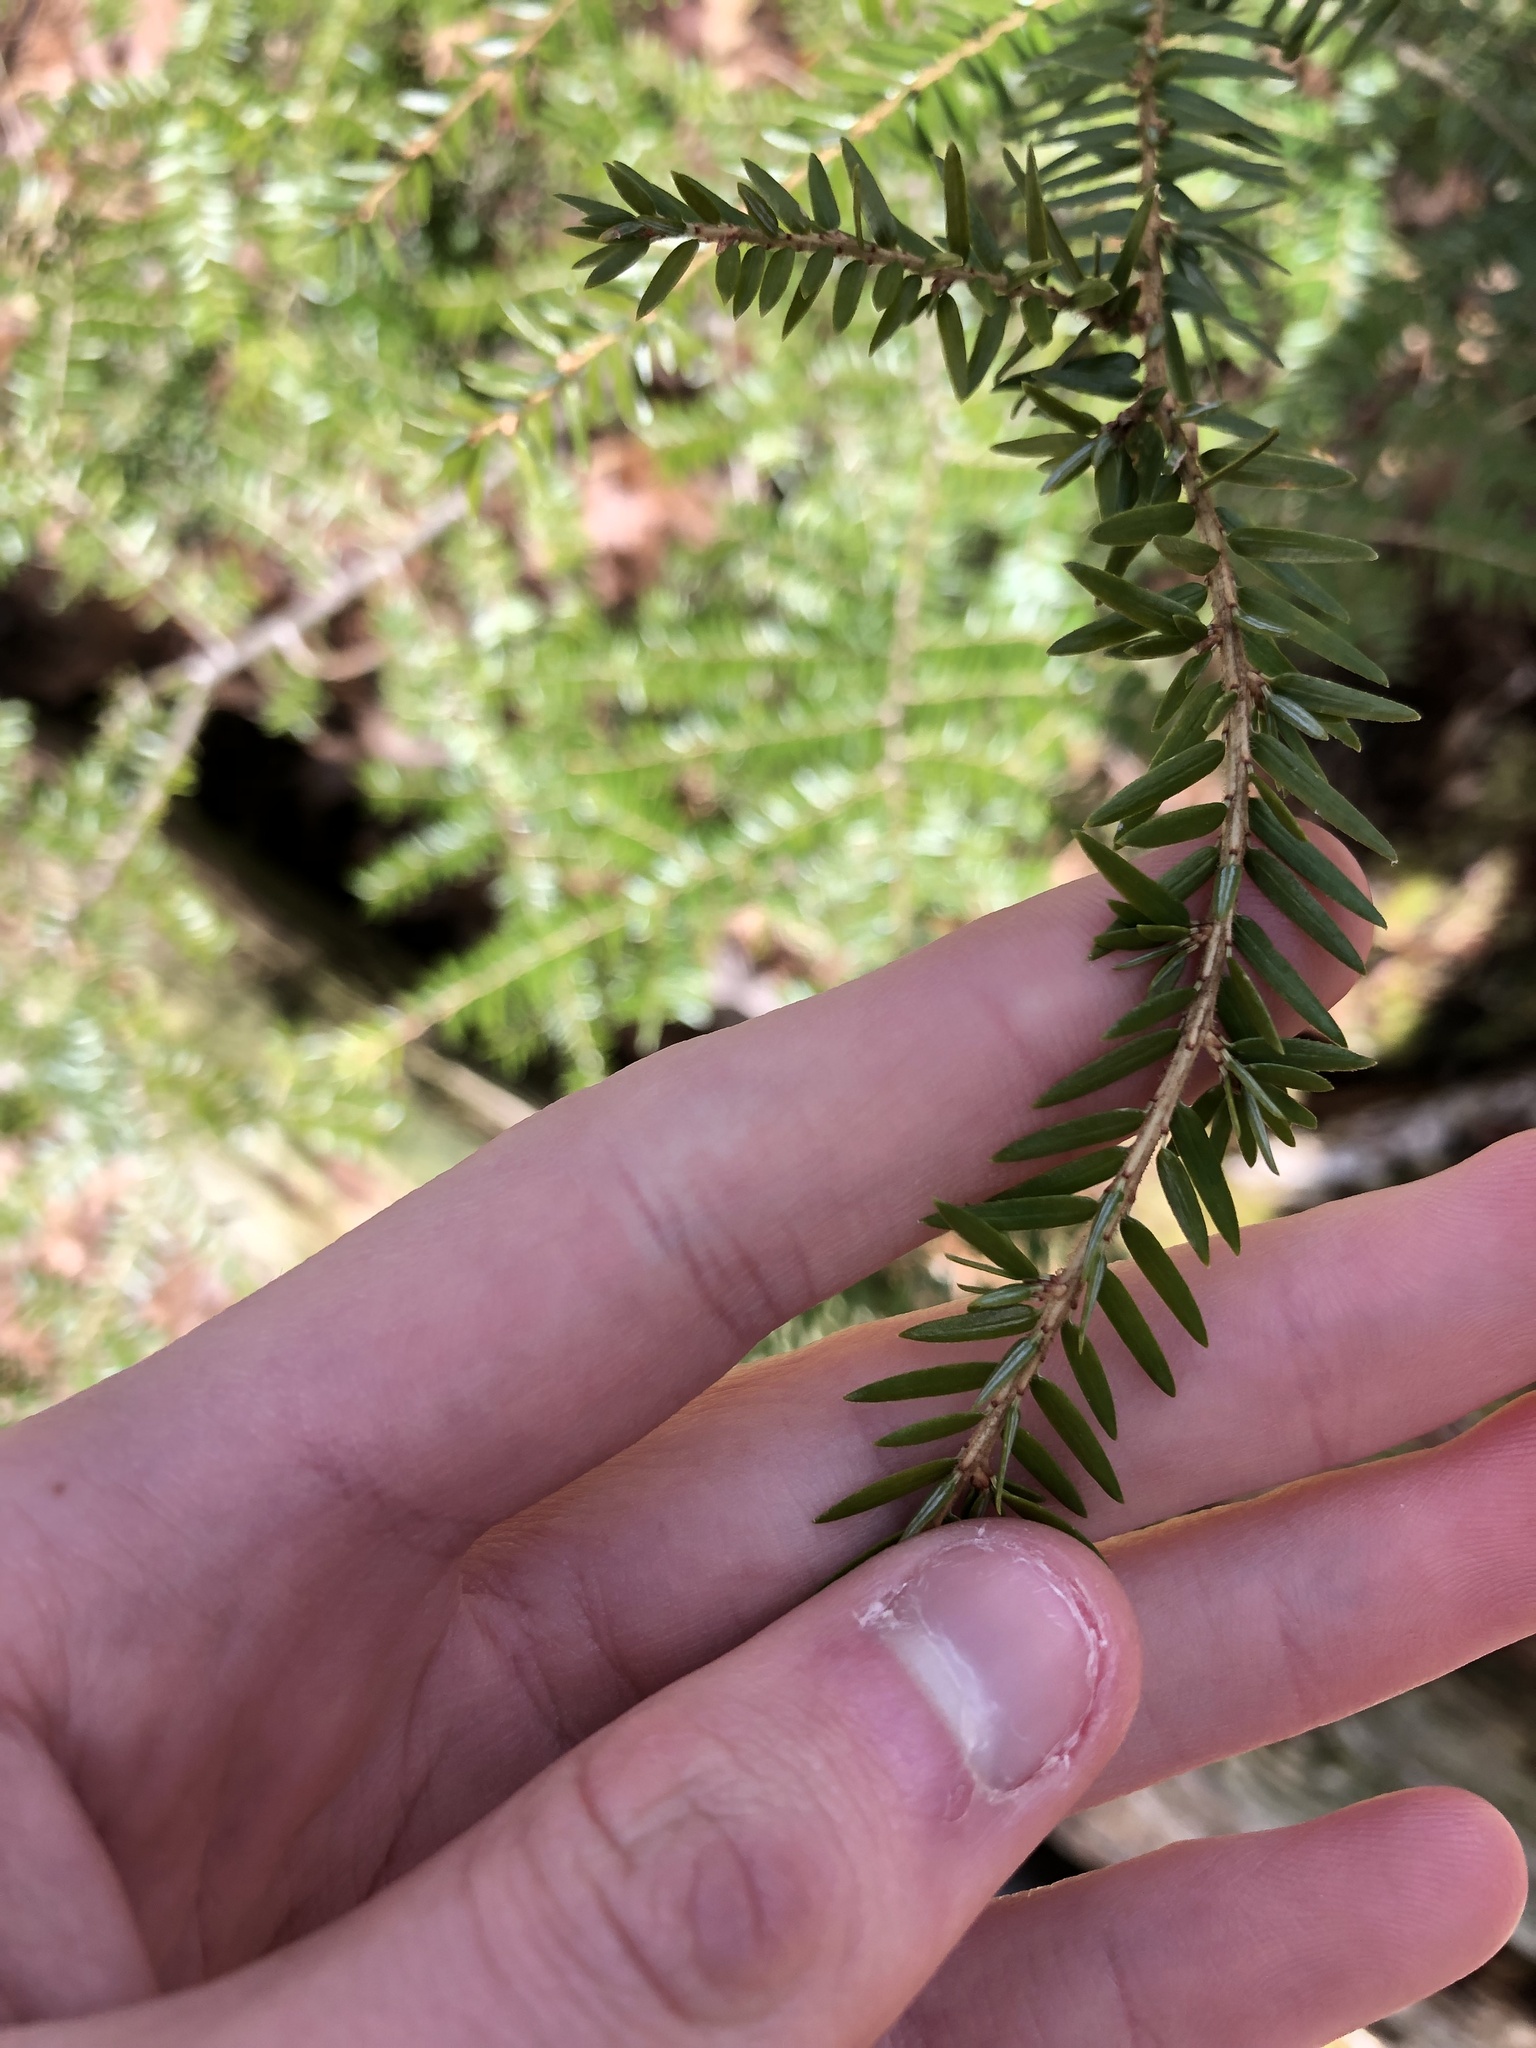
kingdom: Plantae
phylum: Tracheophyta
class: Pinopsida
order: Pinales
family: Pinaceae
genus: Tsuga
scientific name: Tsuga canadensis
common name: Eastern hemlock
